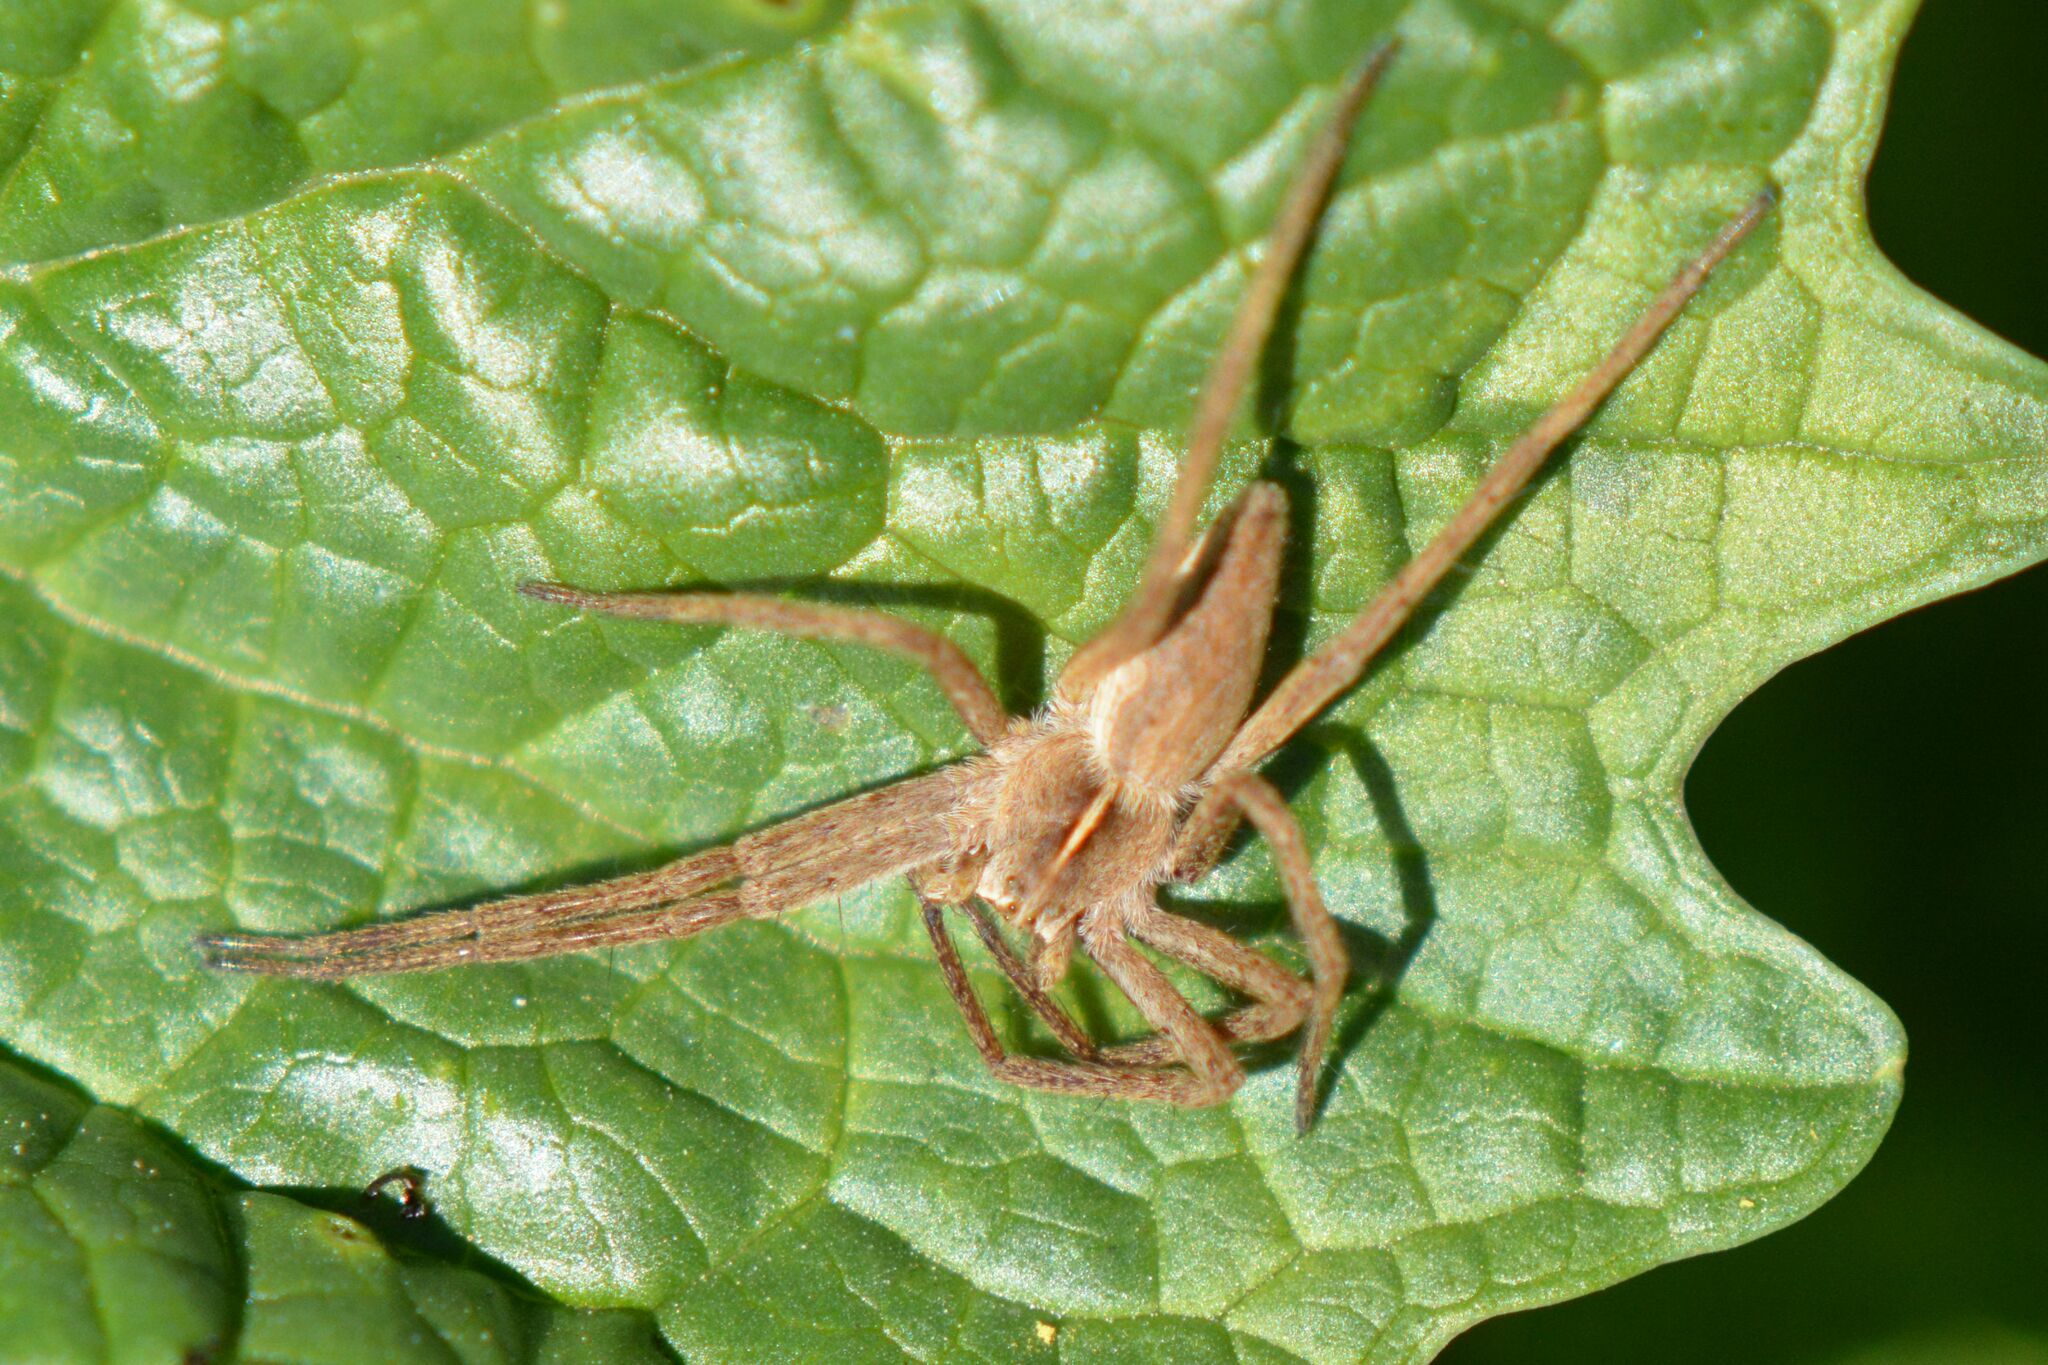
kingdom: Animalia
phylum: Arthropoda
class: Arachnida
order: Araneae
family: Pisauridae
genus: Pisaura
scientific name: Pisaura mirabilis
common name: Tent spider
